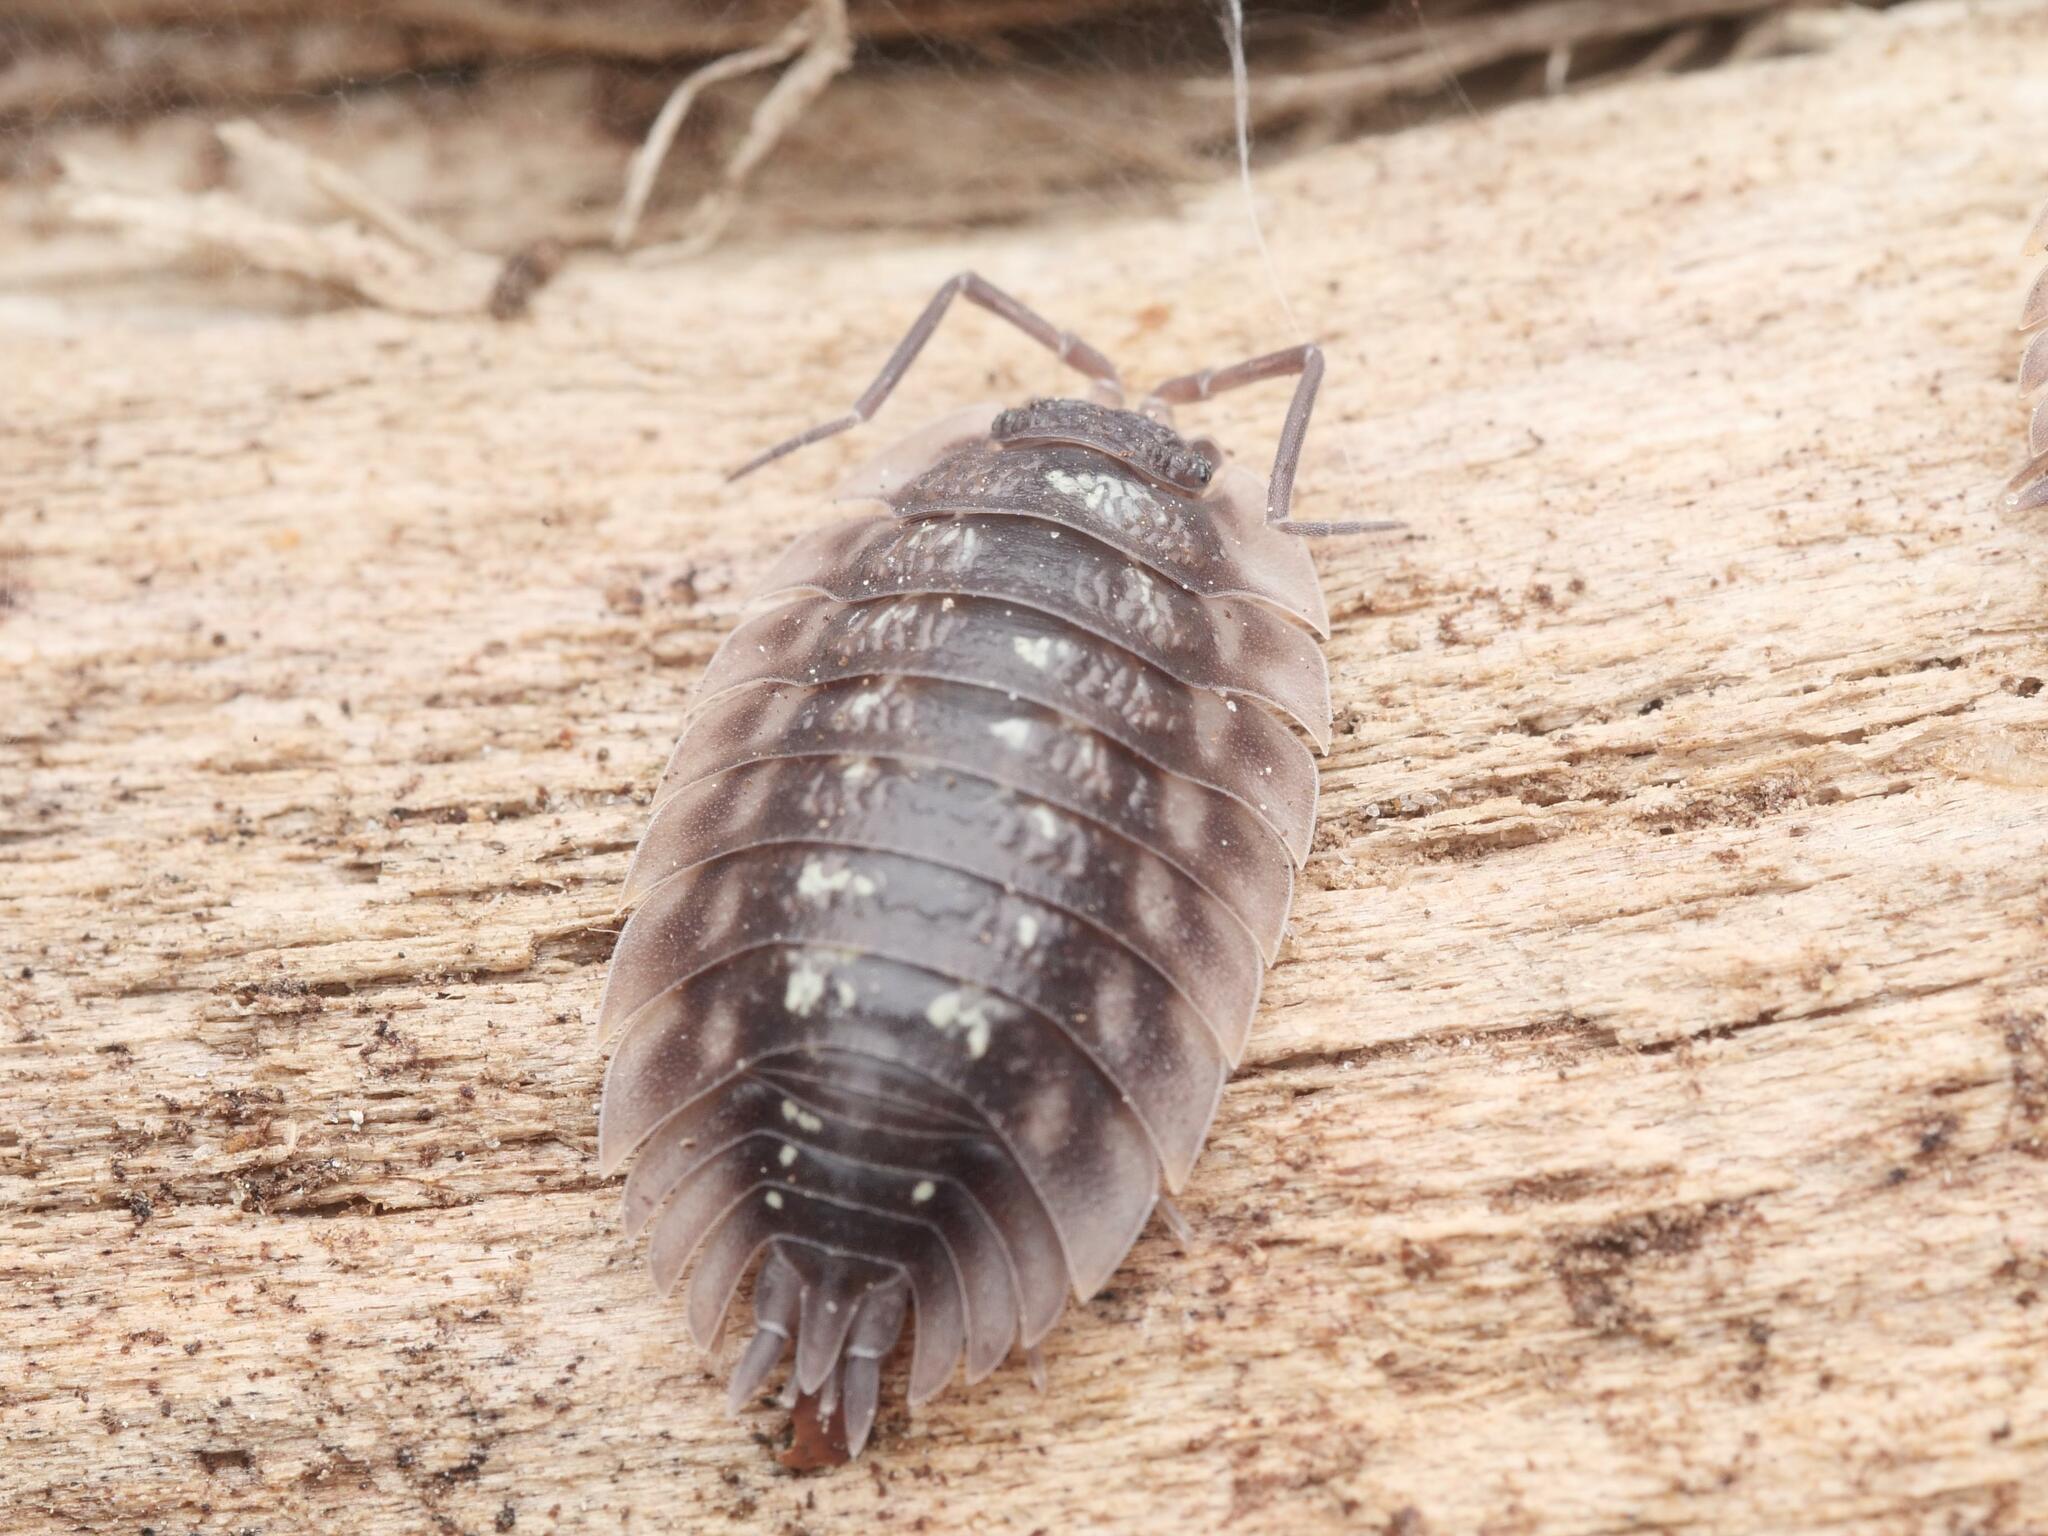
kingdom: Animalia
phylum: Arthropoda
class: Malacostraca
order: Isopoda
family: Oniscidae
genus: Oniscus
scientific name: Oniscus asellus
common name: Common shiny woodlouse
